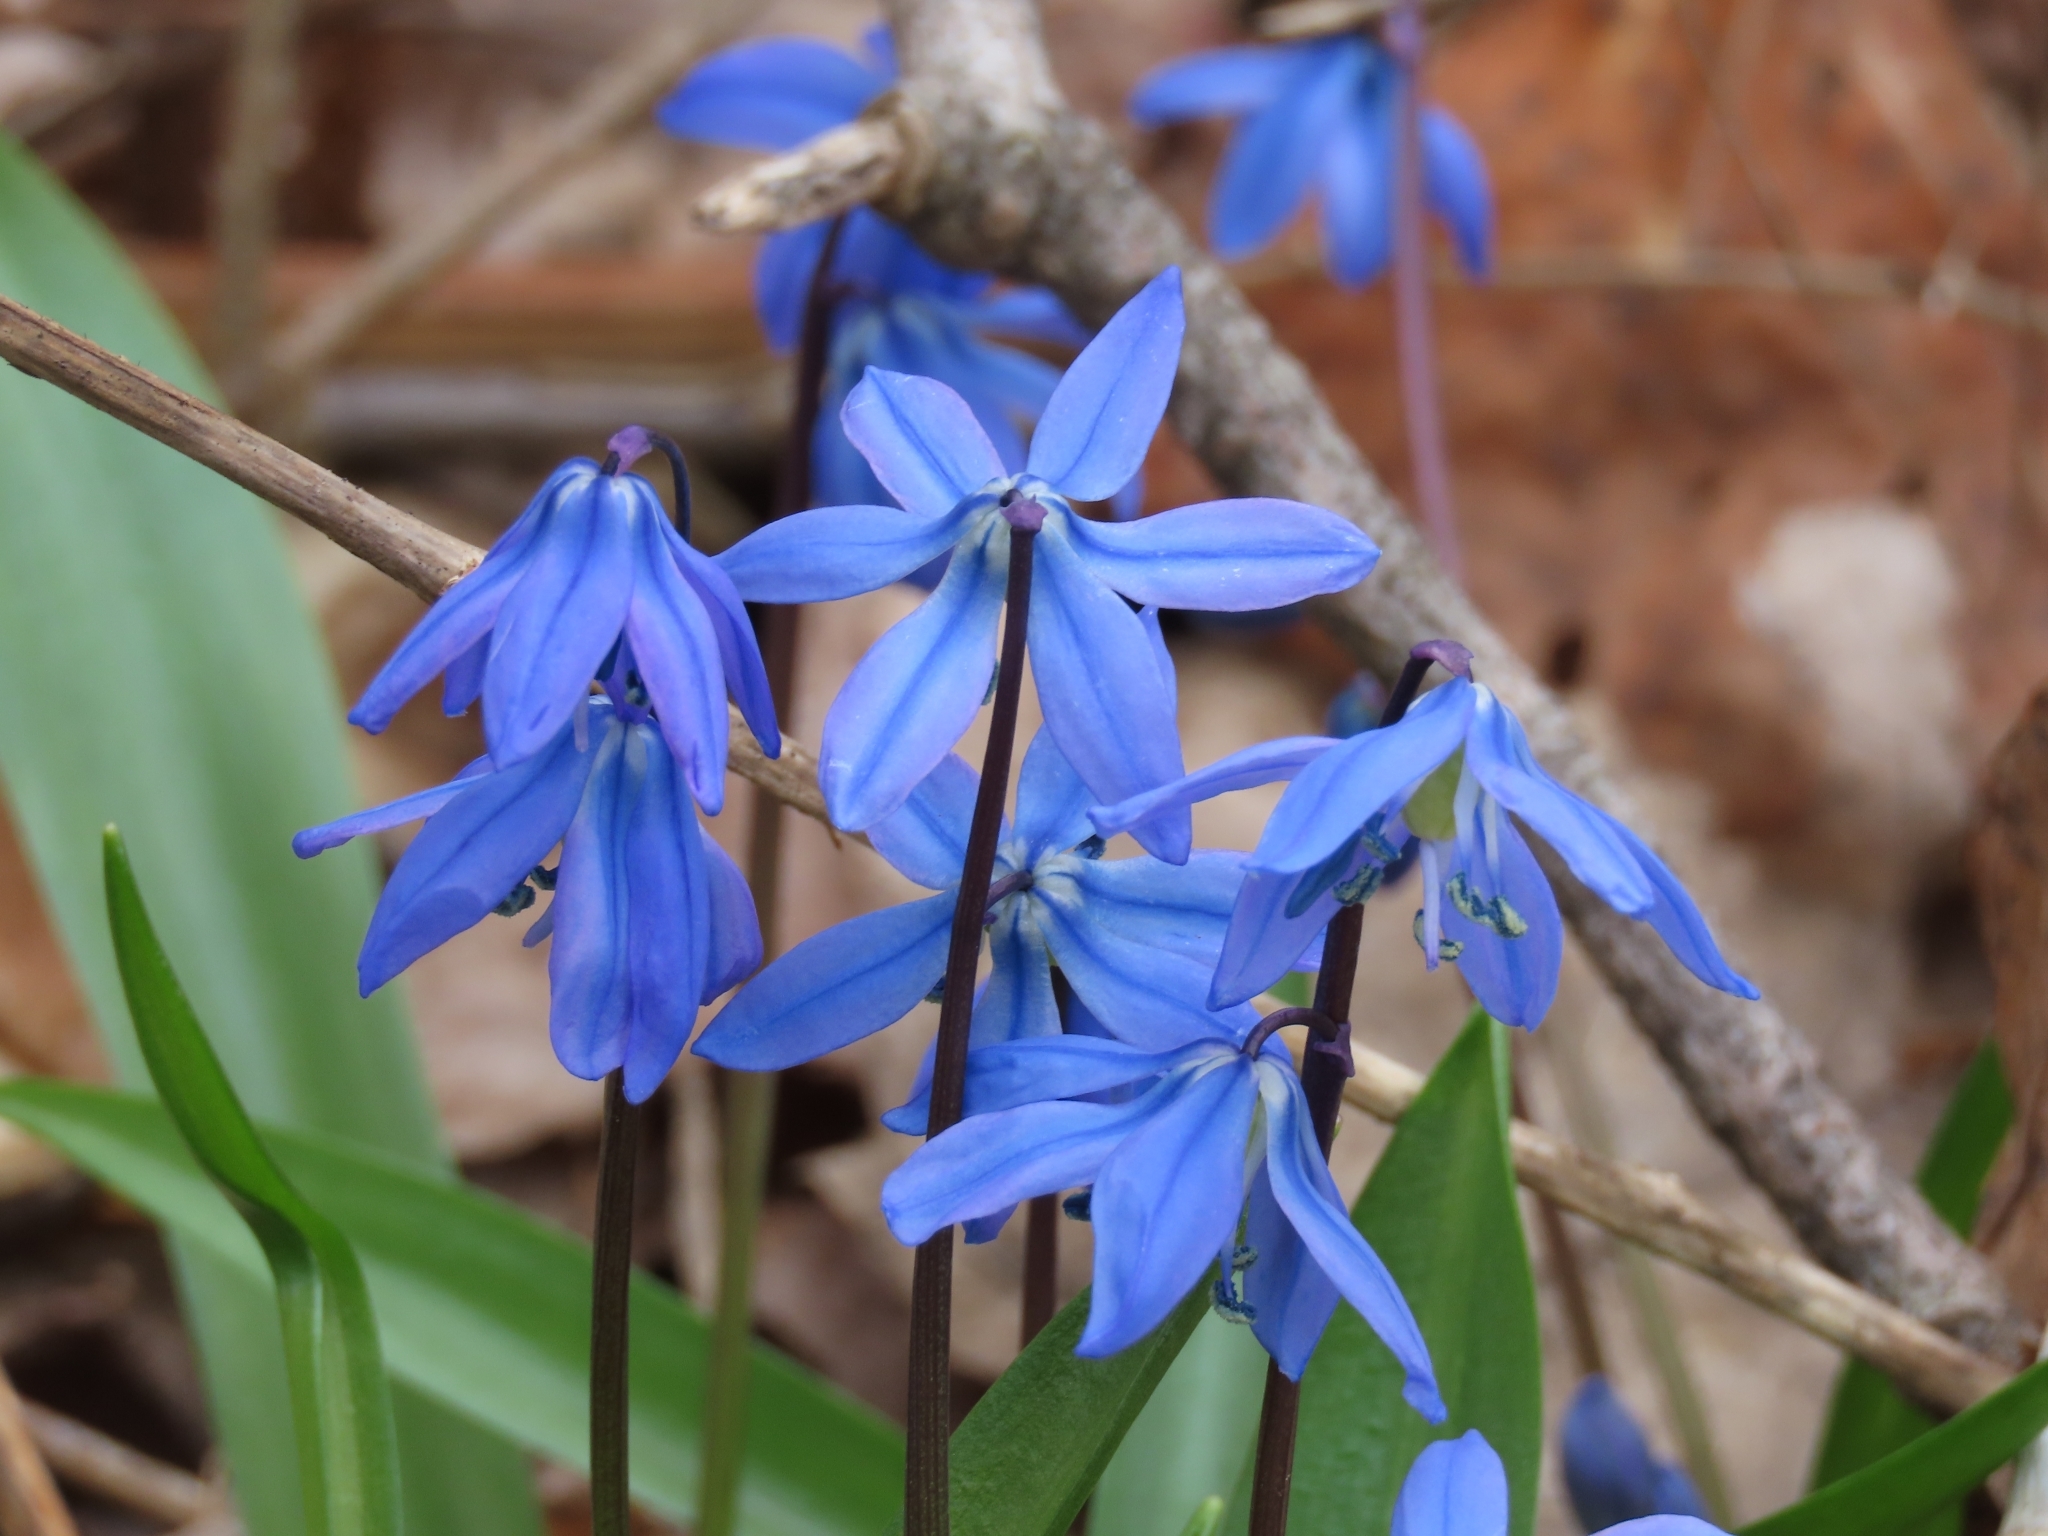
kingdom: Plantae
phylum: Tracheophyta
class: Liliopsida
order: Asparagales
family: Asparagaceae
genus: Scilla
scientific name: Scilla siberica
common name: Siberian squill
